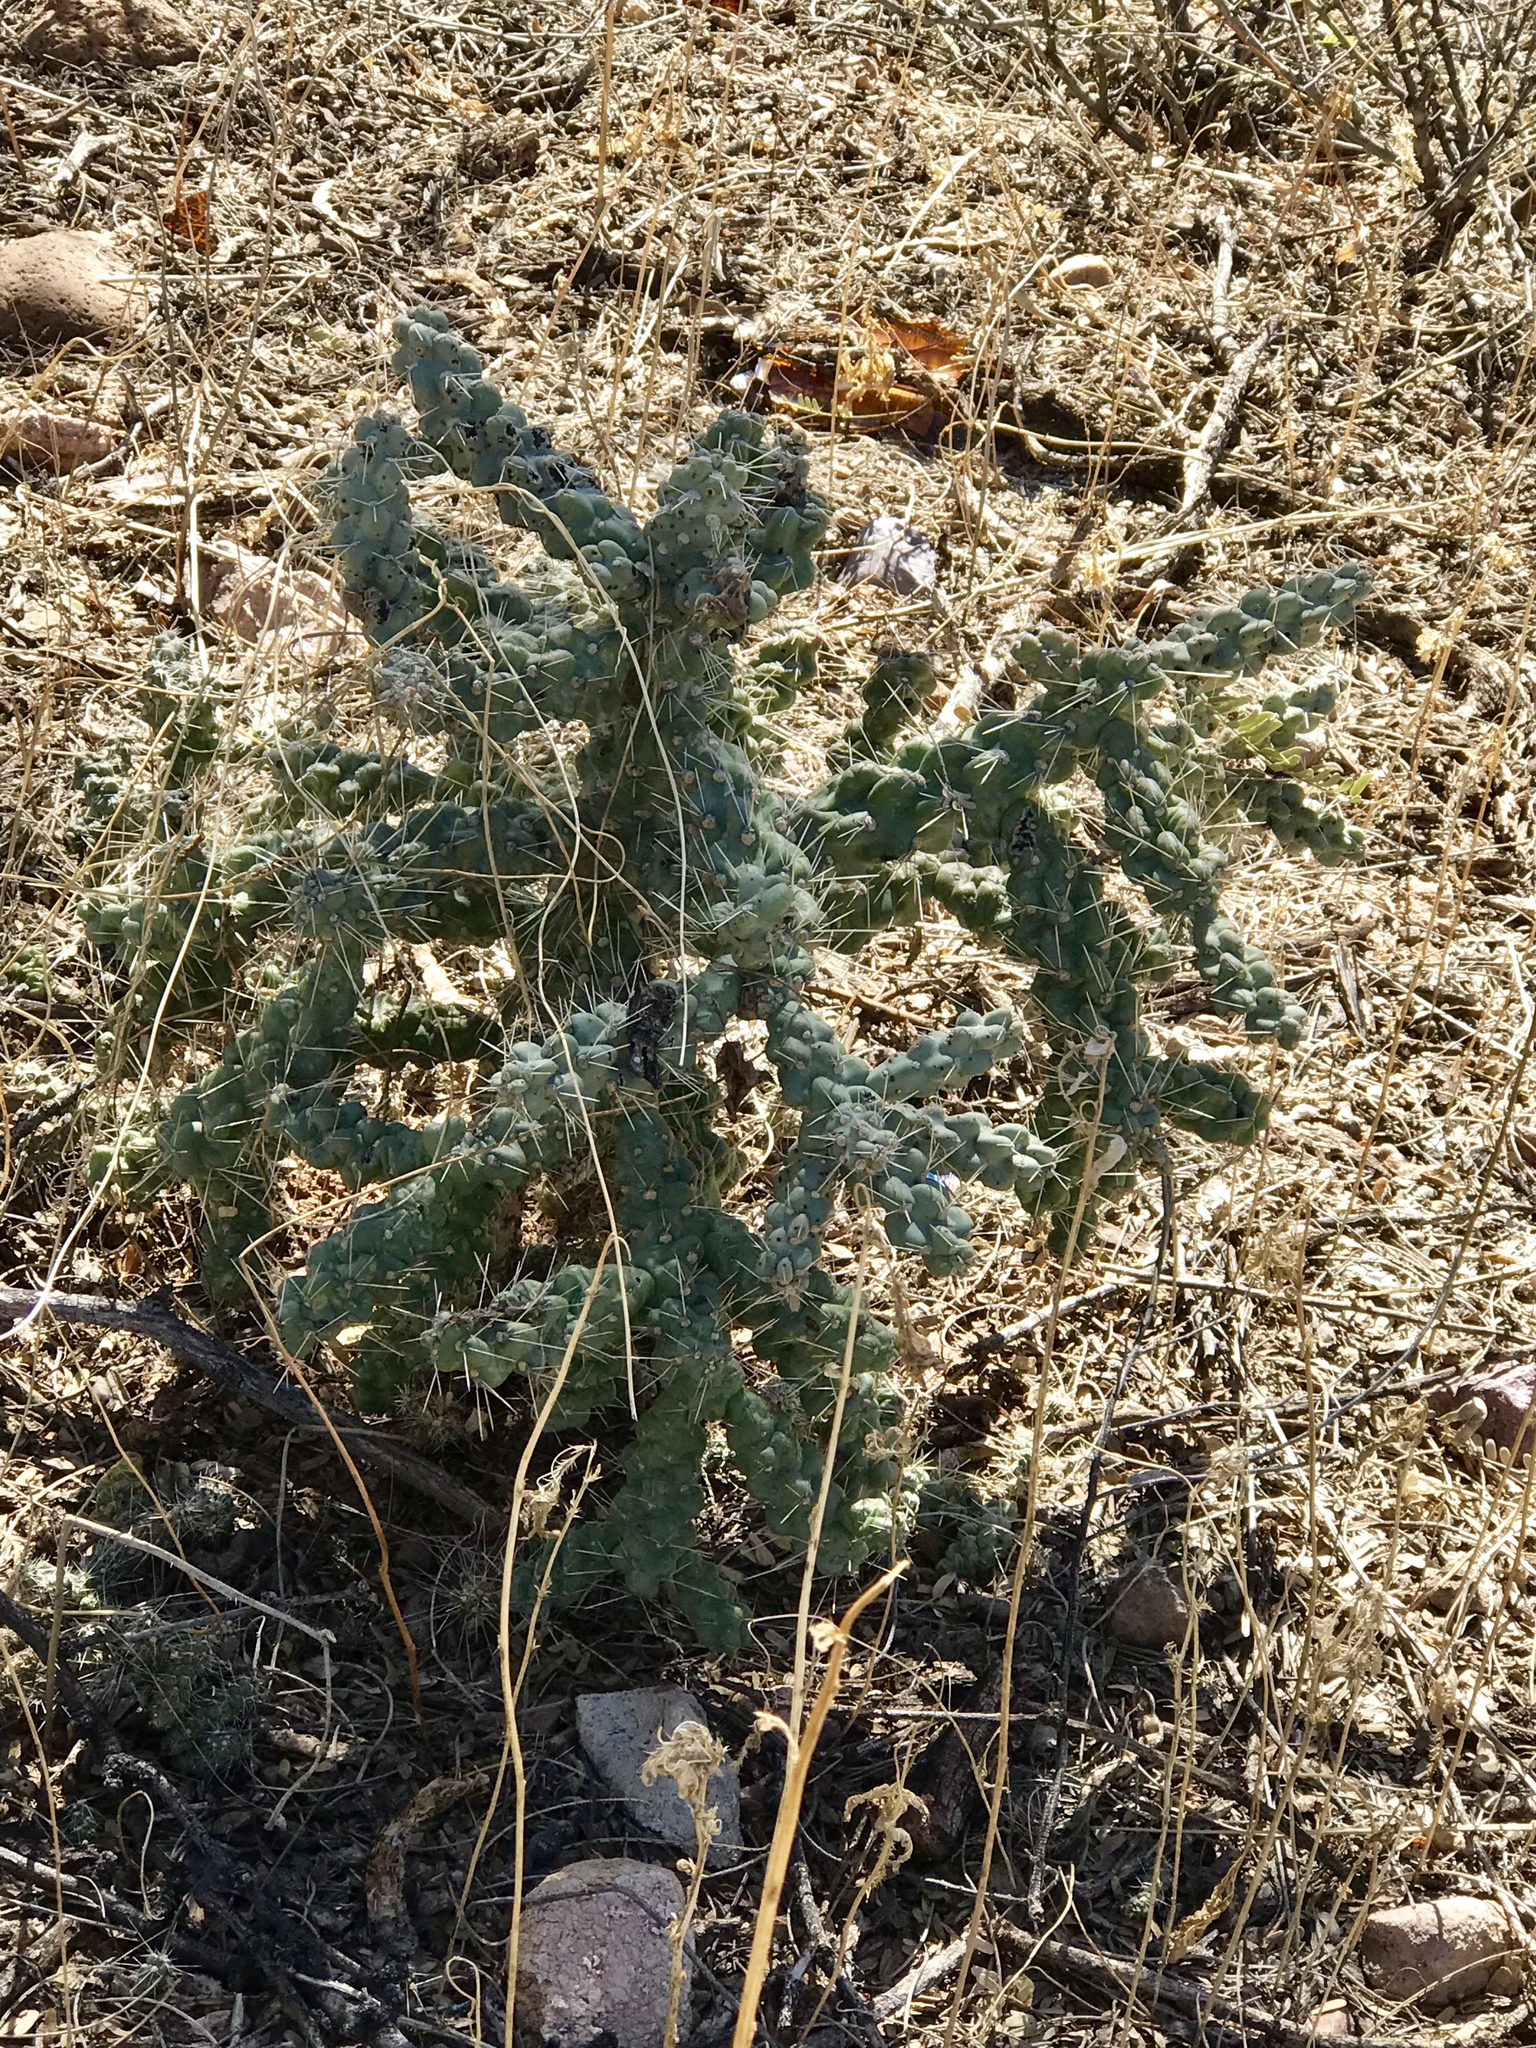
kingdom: Plantae
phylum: Tracheophyta
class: Magnoliopsida
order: Caryophyllales
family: Cactaceae
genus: Cylindropuntia
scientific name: Cylindropuntia fulgida
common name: Jumping cholla
